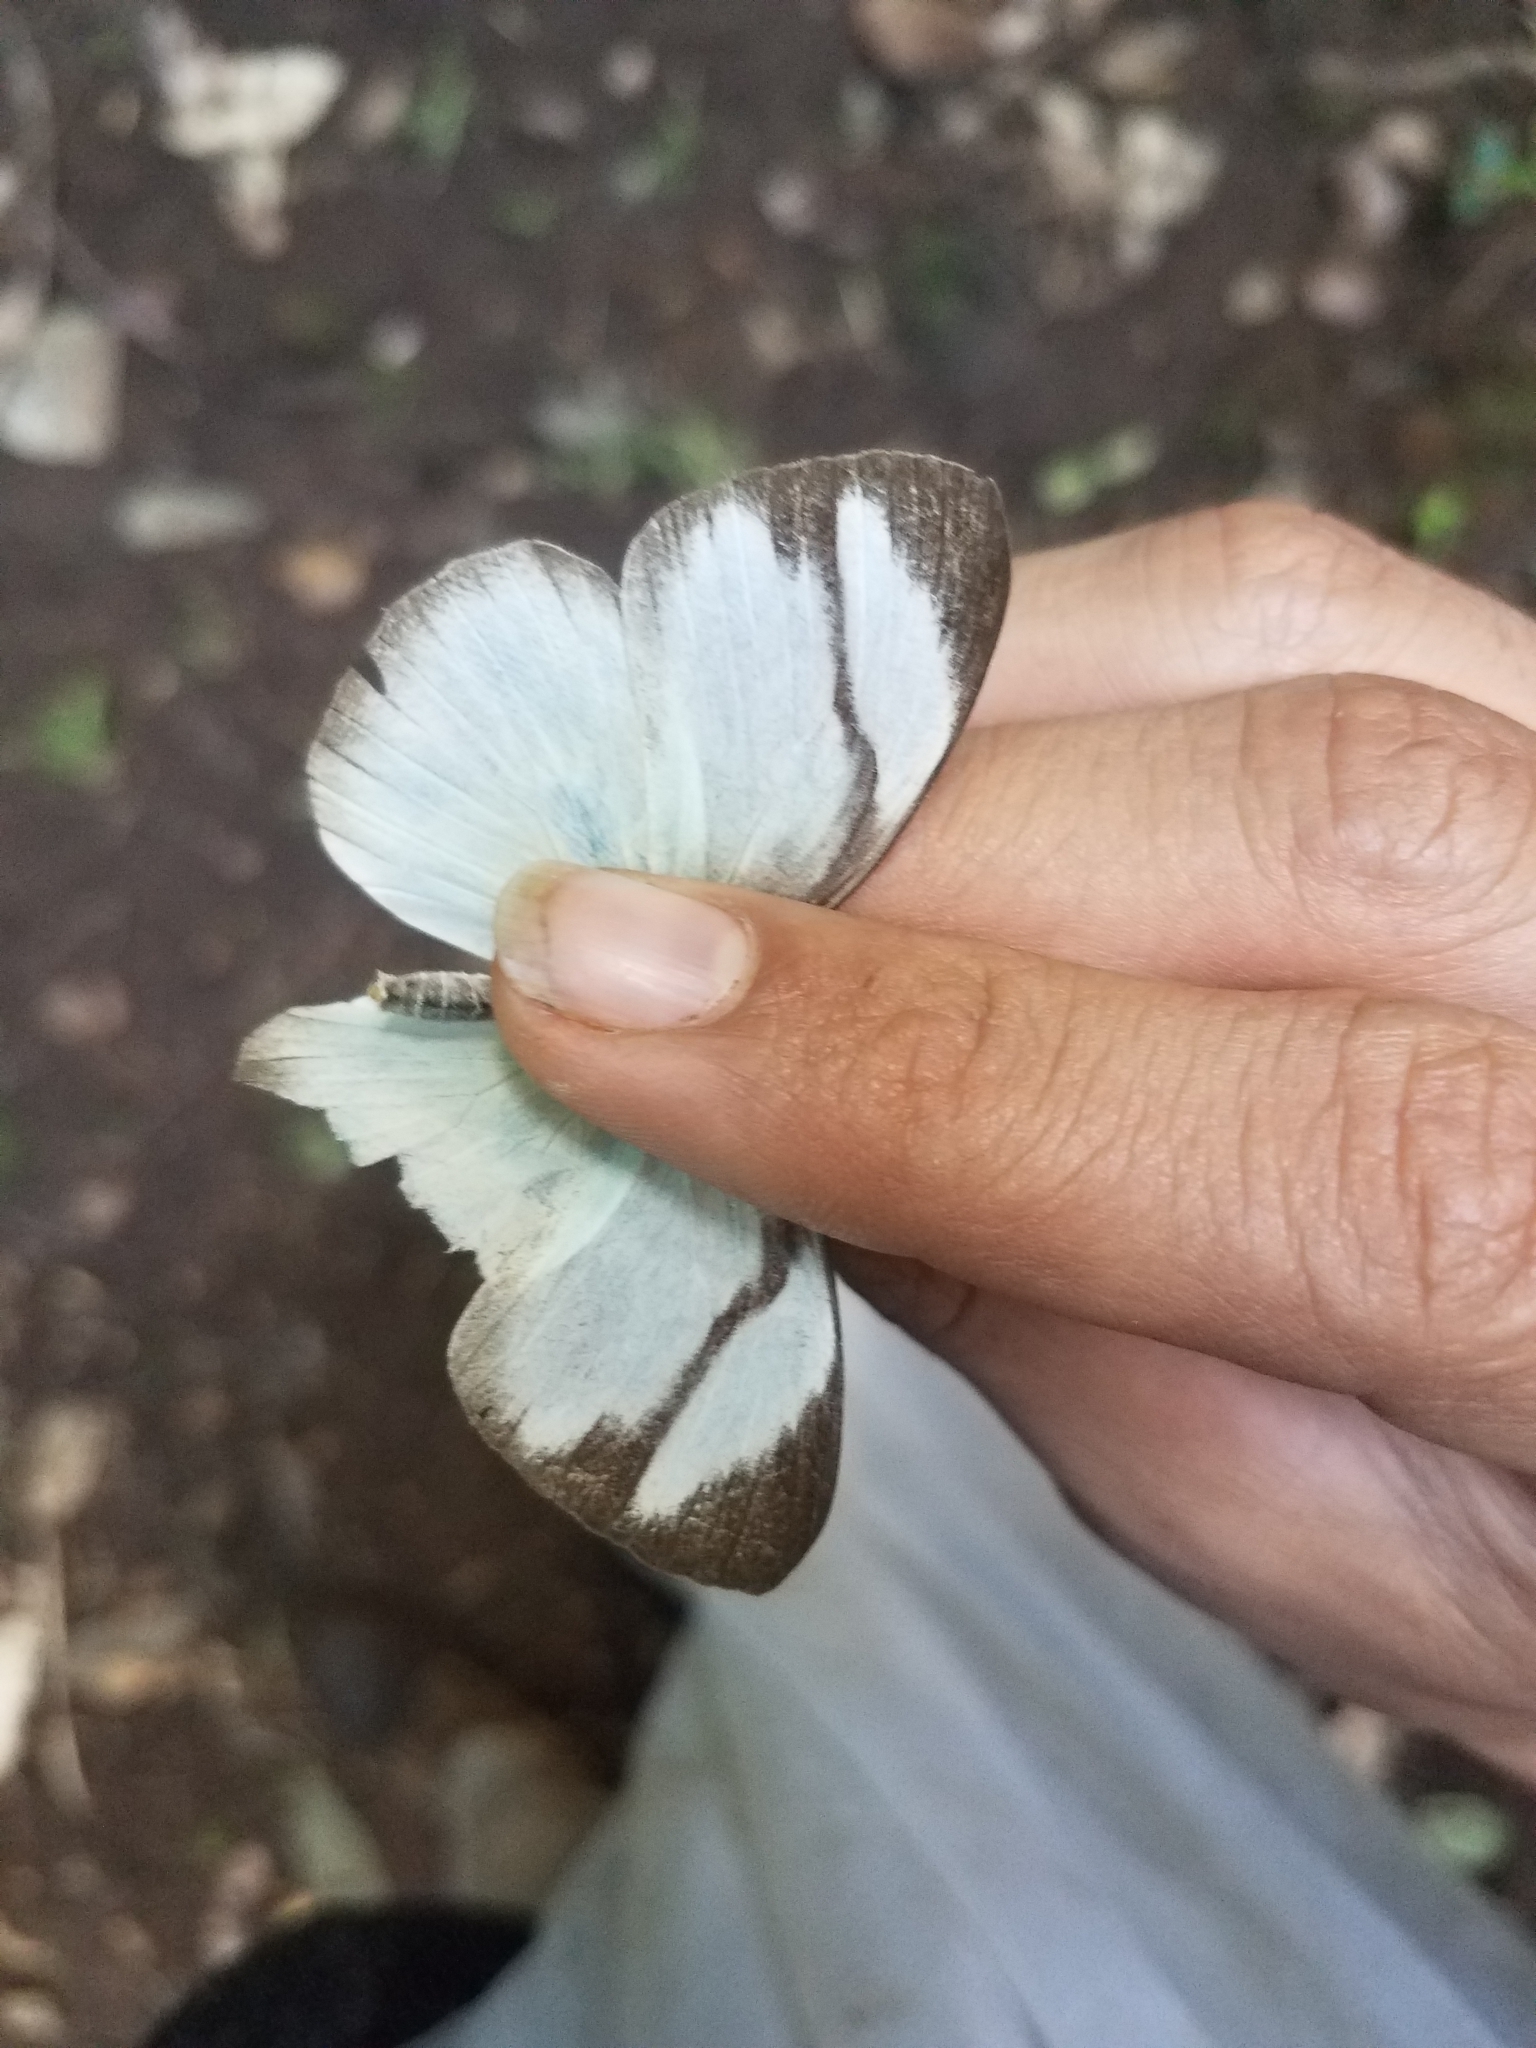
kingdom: Animalia
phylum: Arthropoda
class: Insecta
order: Lepidoptera
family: Pieridae
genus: Itaballia
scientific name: Itaballia demophile
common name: Cross-barred white
